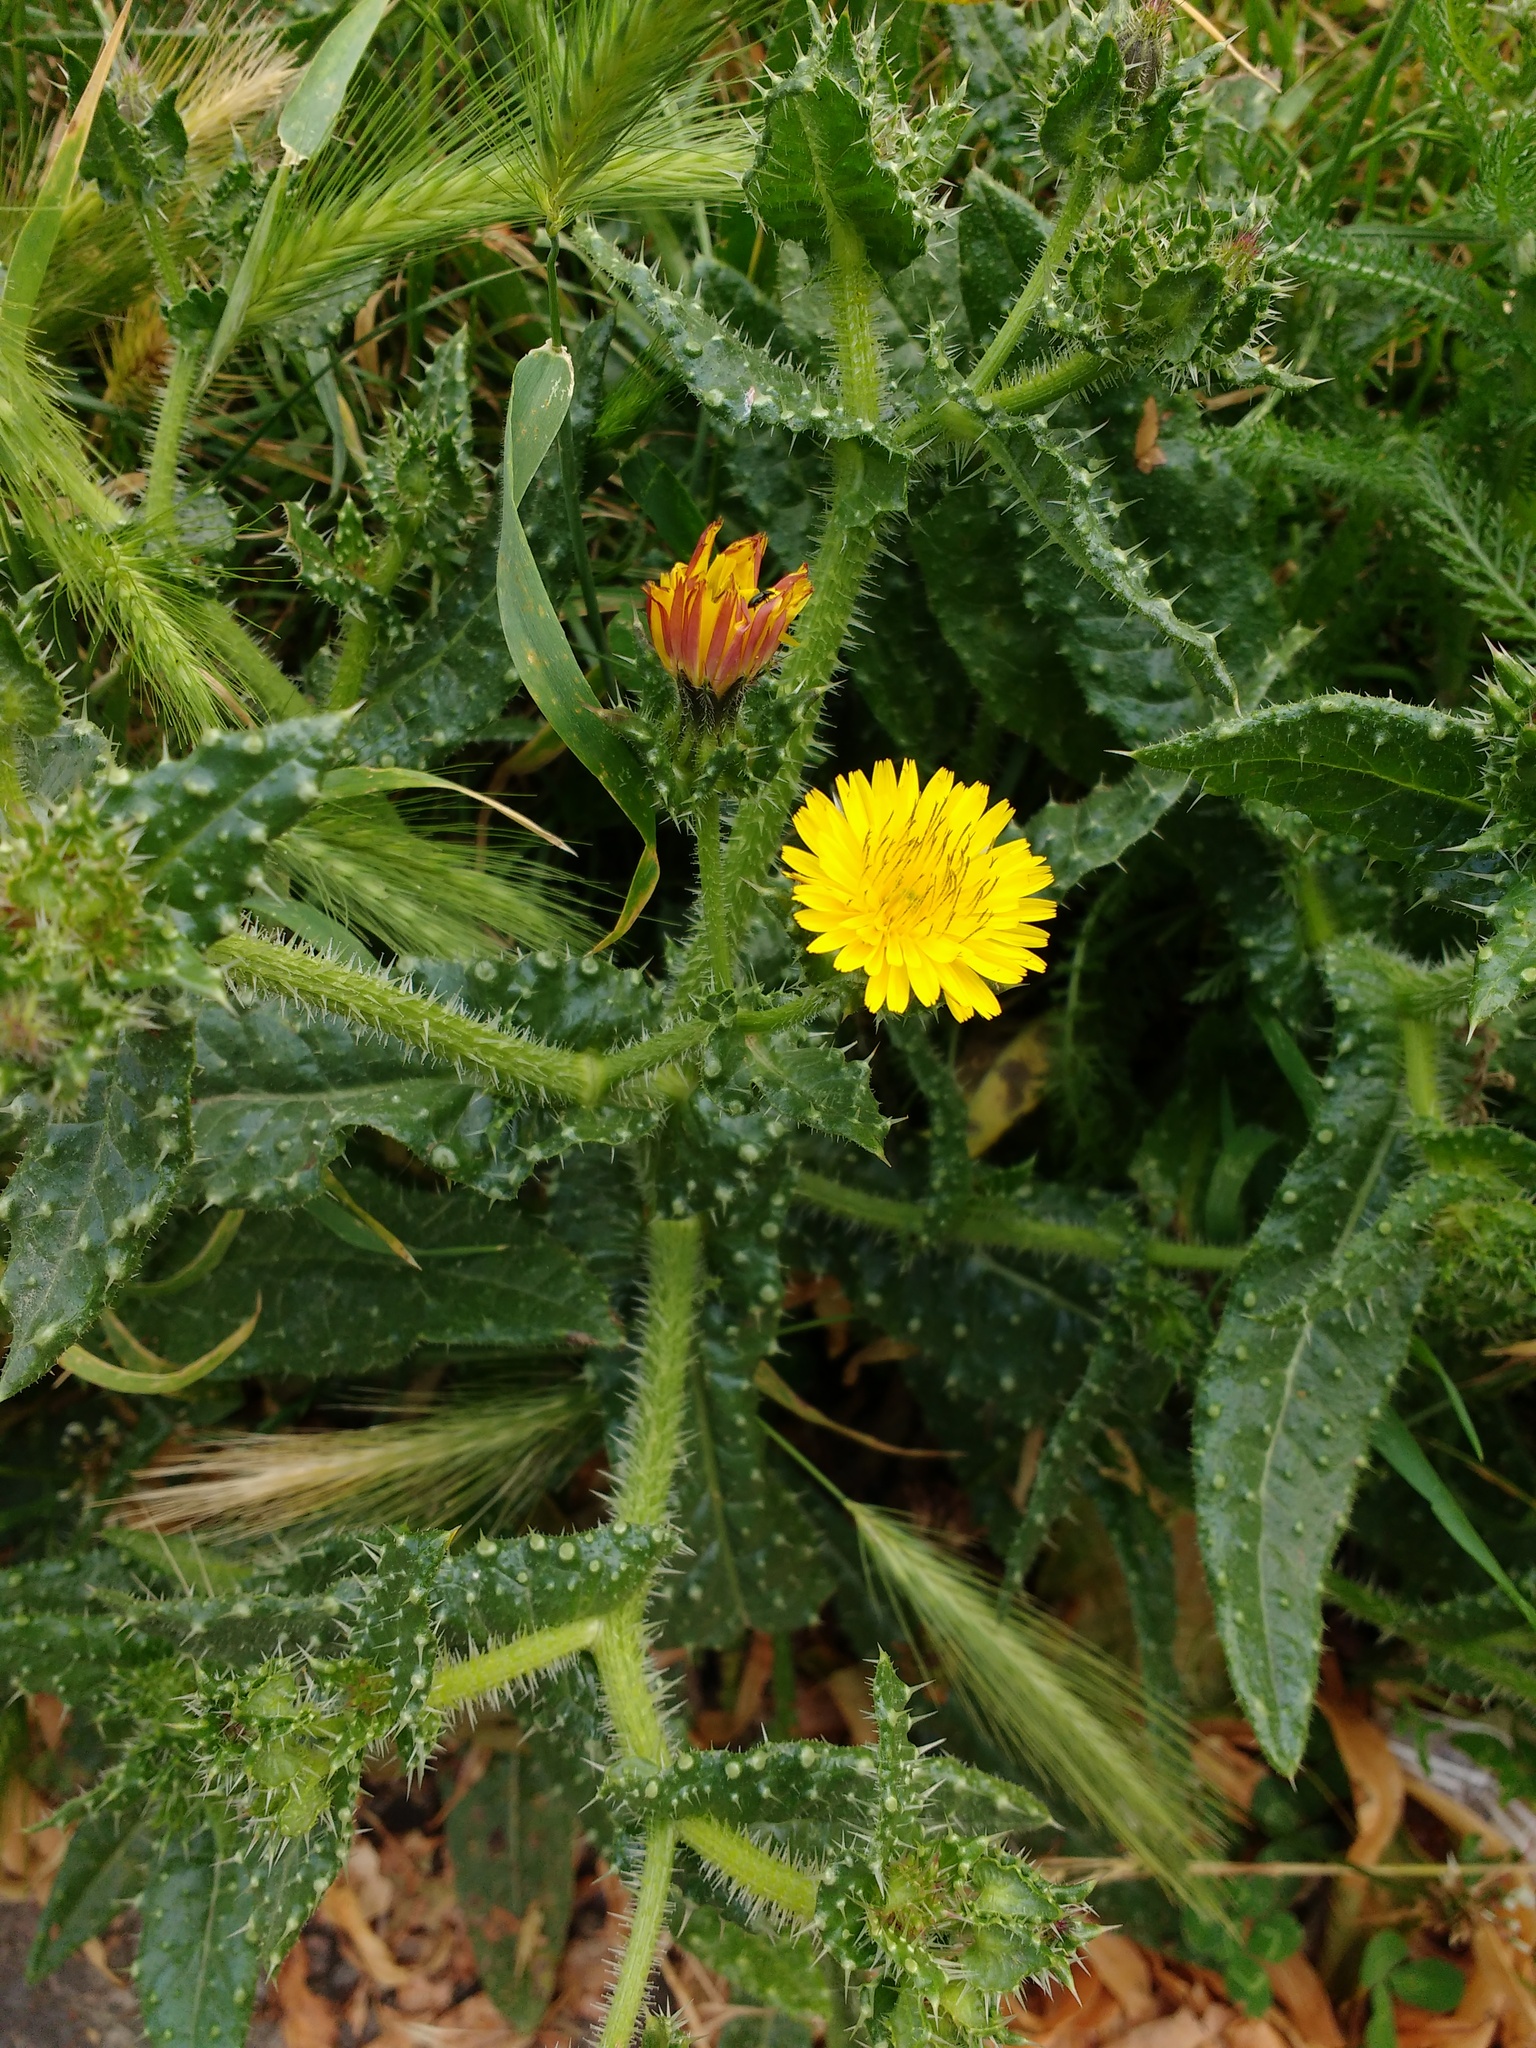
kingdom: Plantae
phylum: Tracheophyta
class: Magnoliopsida
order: Asterales
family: Asteraceae
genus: Helminthotheca
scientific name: Helminthotheca echioides
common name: Ox-tongue
